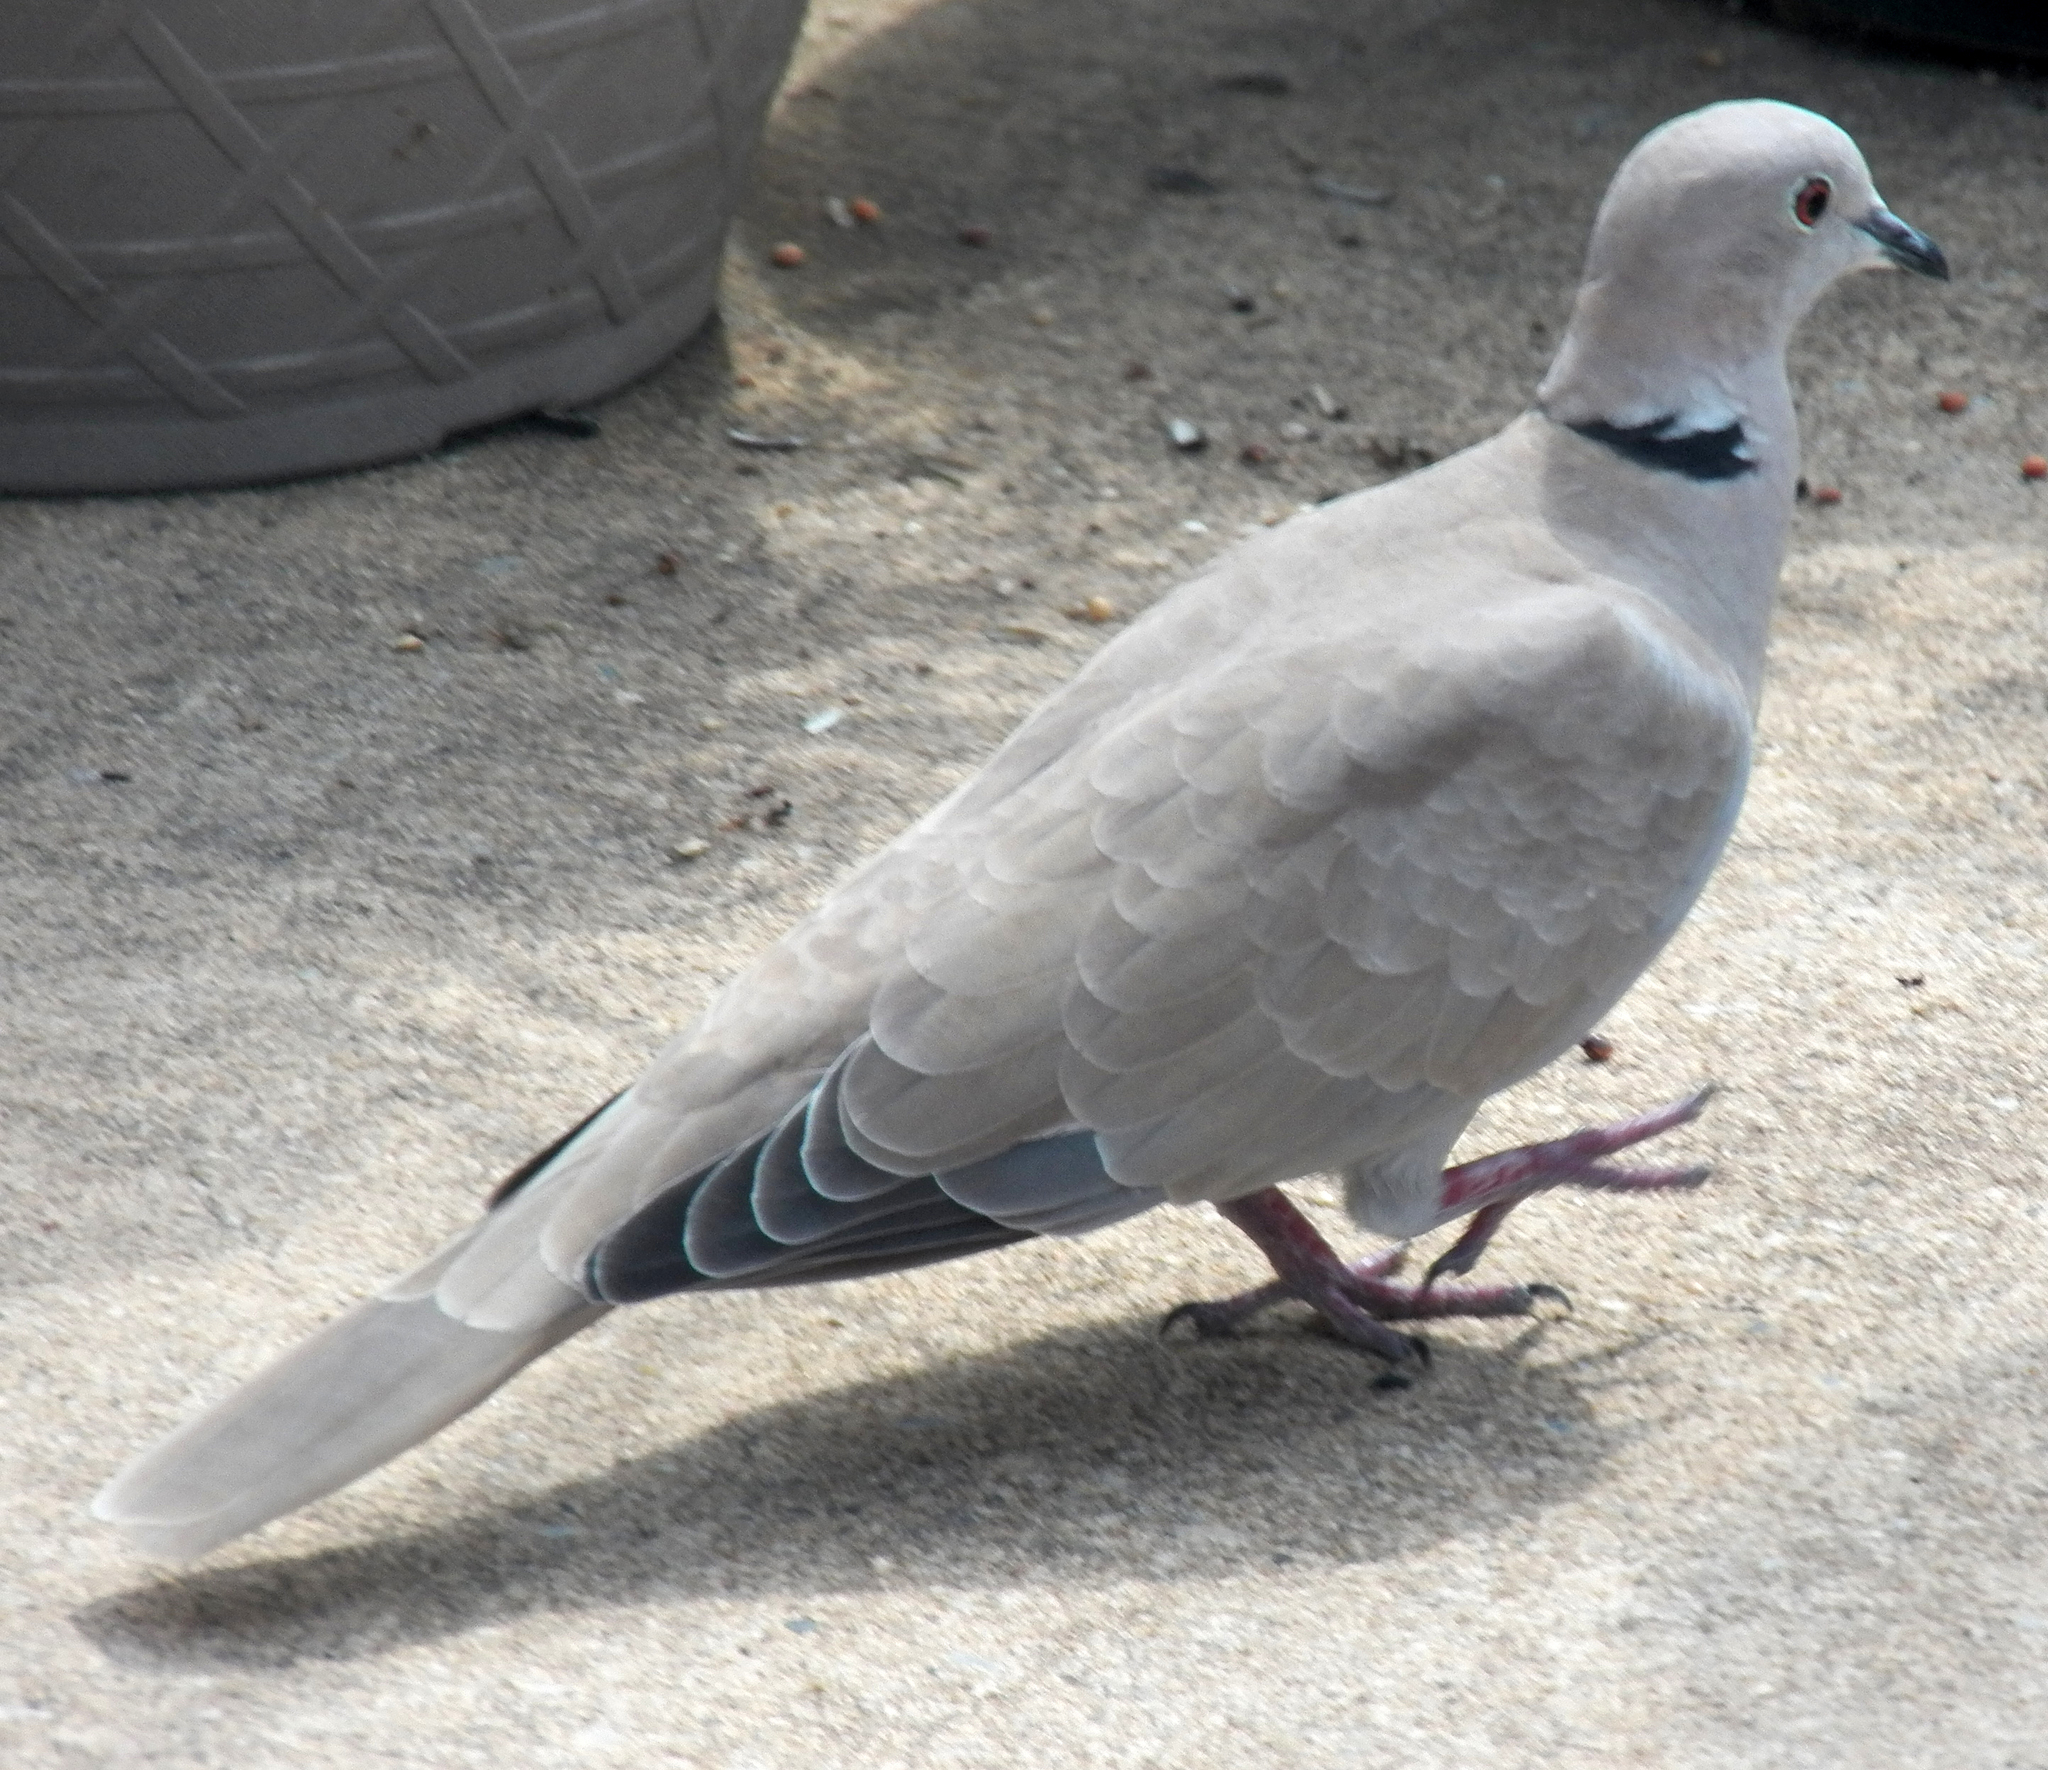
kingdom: Animalia
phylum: Chordata
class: Aves
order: Columbiformes
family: Columbidae
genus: Streptopelia
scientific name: Streptopelia decaocto
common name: Eurasian collared dove
